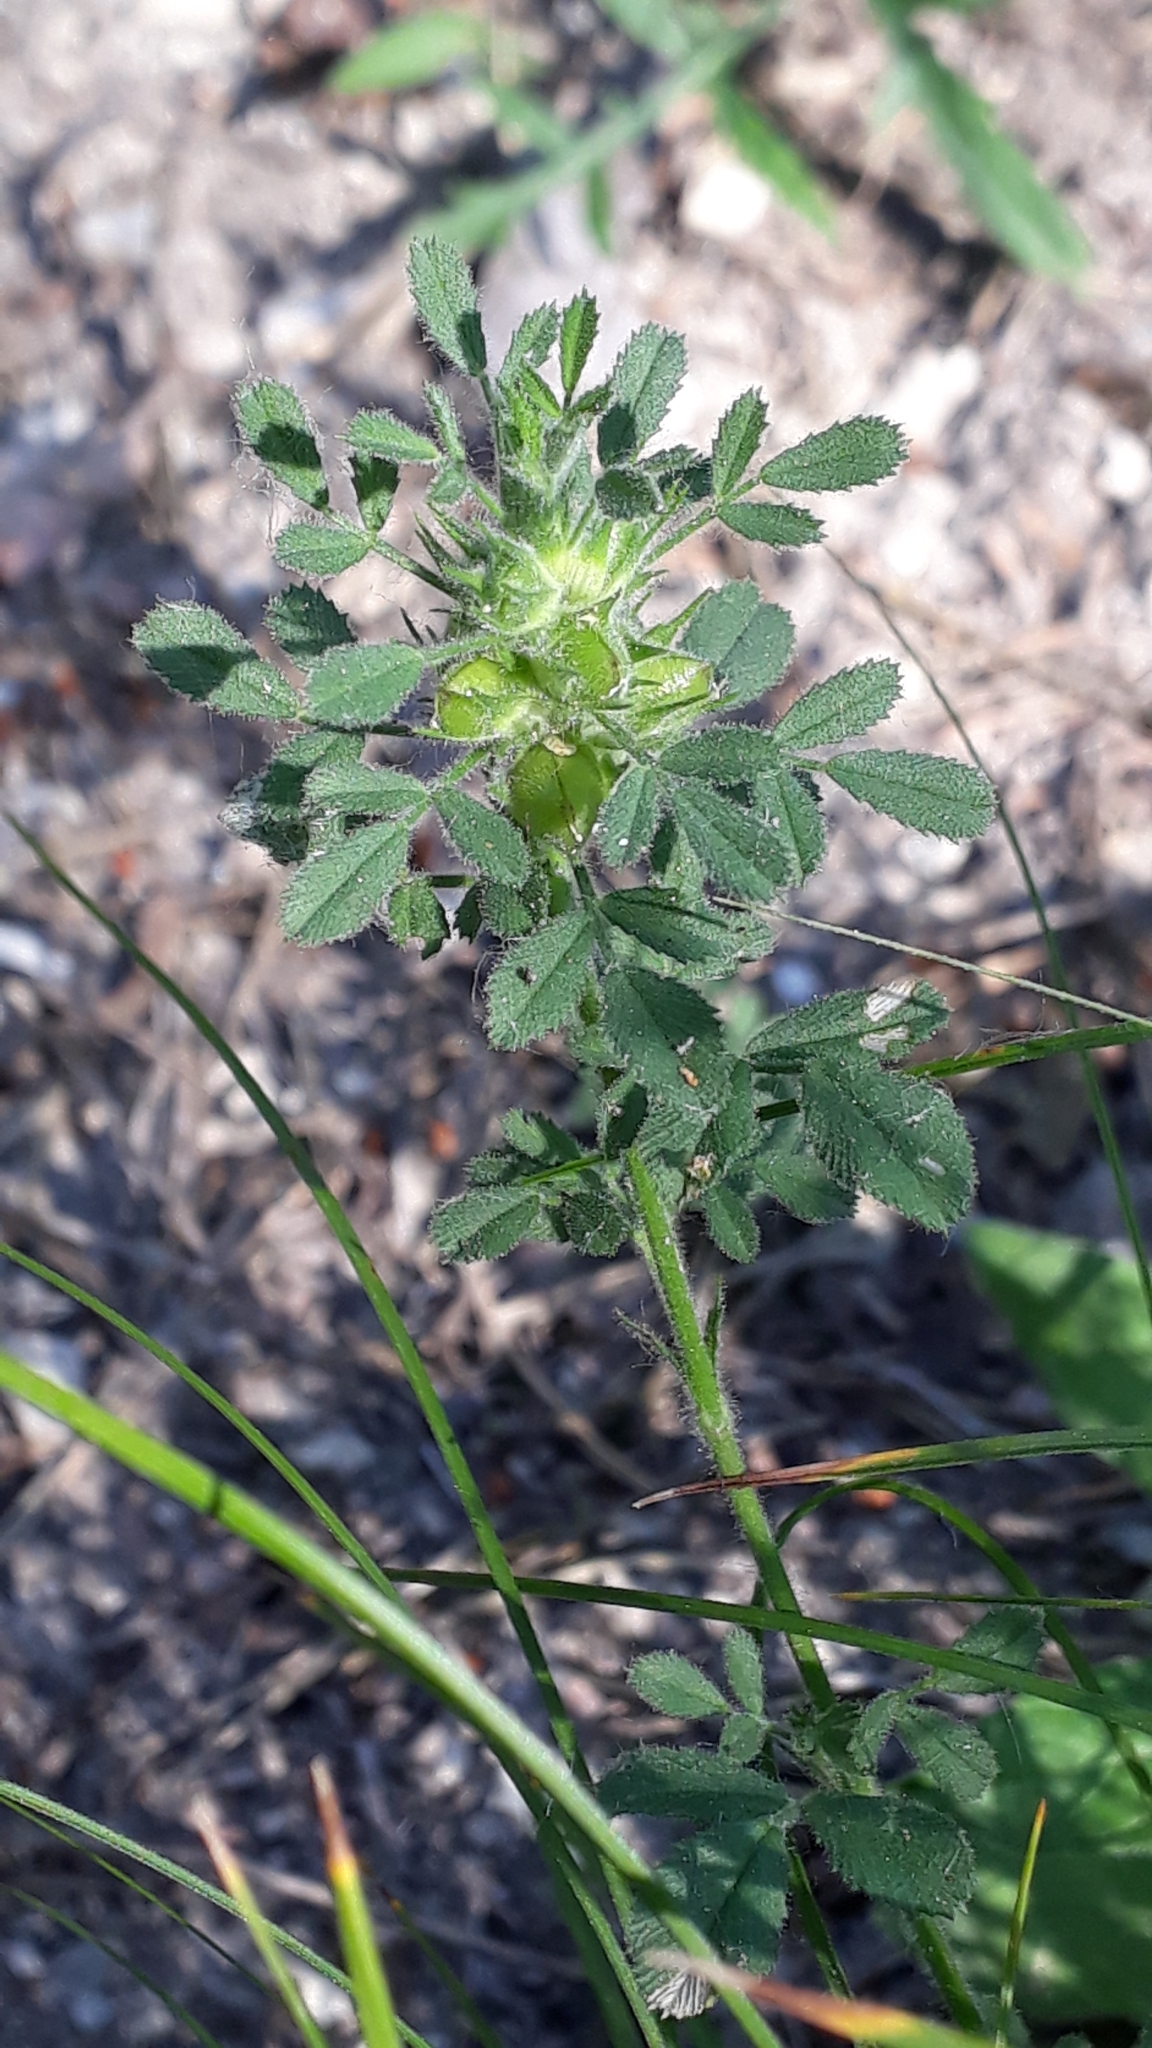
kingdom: Plantae
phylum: Tracheophyta
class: Magnoliopsida
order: Fabales
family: Fabaceae
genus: Ononis
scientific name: Ononis pusilla
